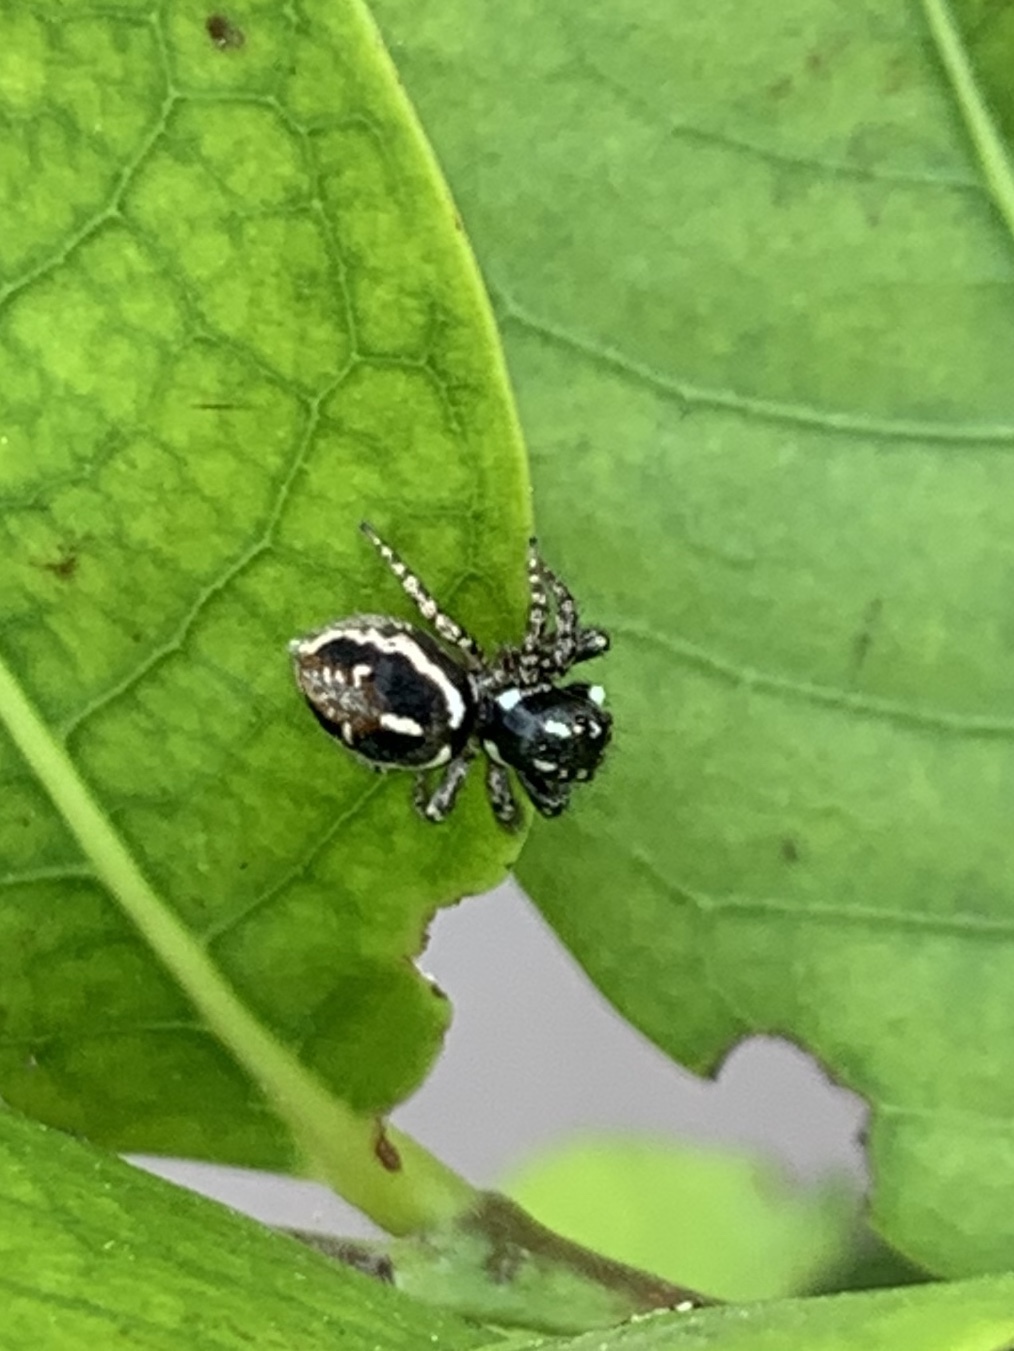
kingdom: Animalia
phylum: Arthropoda
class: Arachnida
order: Araneae
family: Salticidae
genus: Anasaitis
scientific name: Anasaitis canosa
